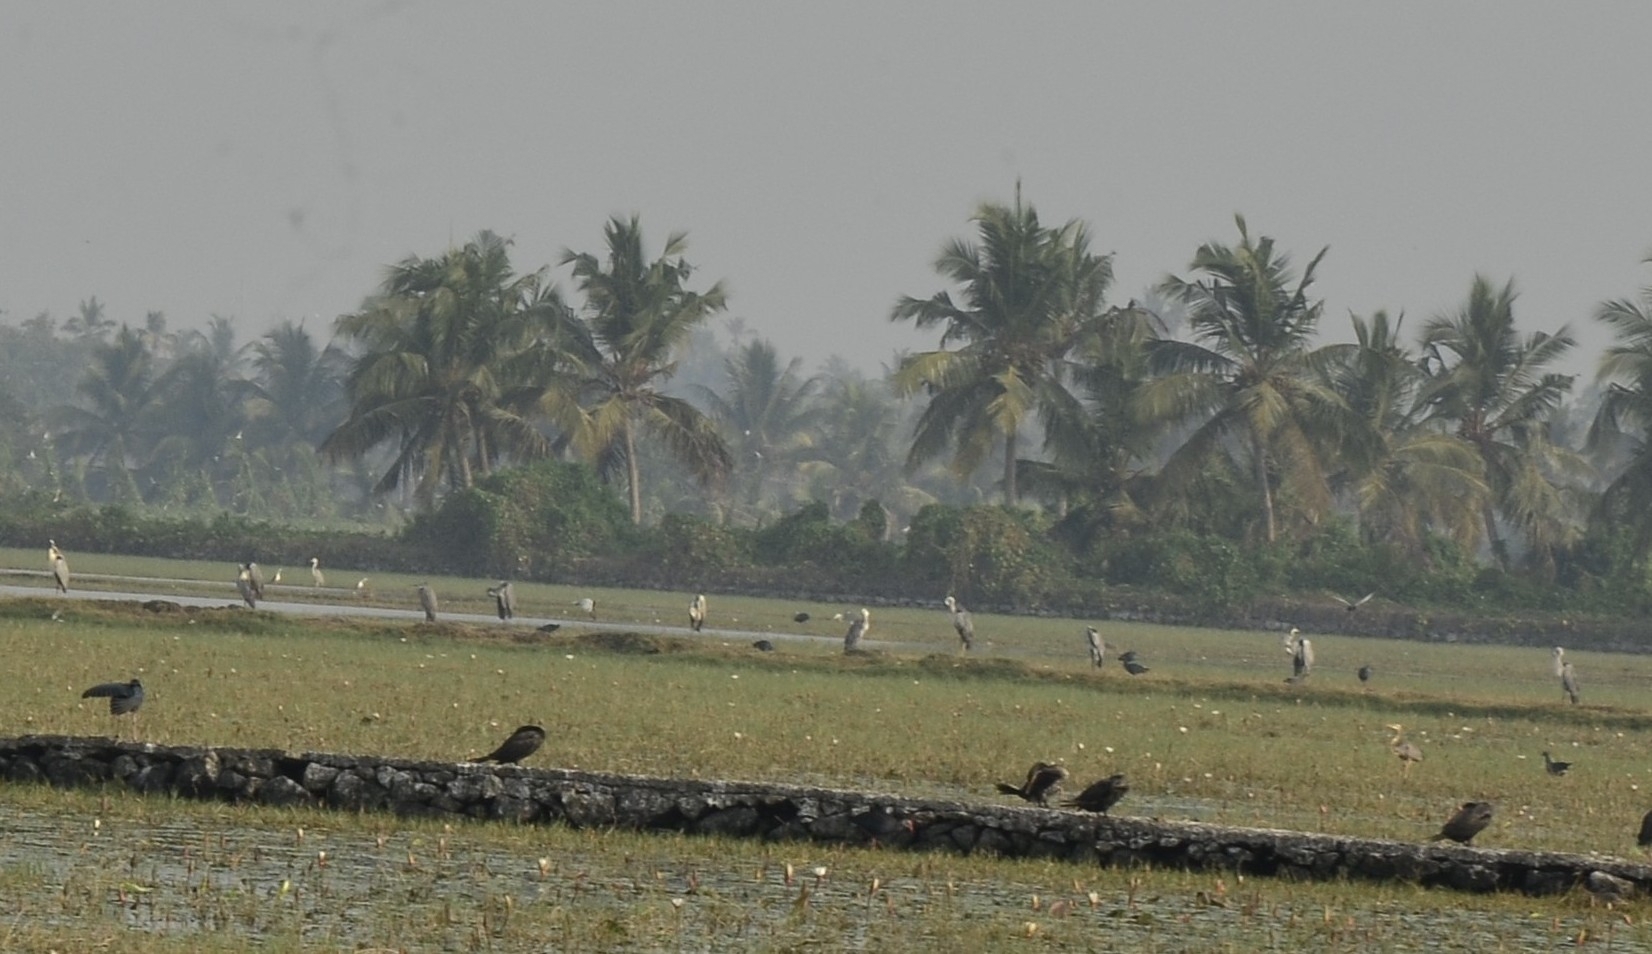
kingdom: Animalia
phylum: Chordata
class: Aves
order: Pelecaniformes
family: Ardeidae
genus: Ardea
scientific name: Ardea cinerea
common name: Grey heron
